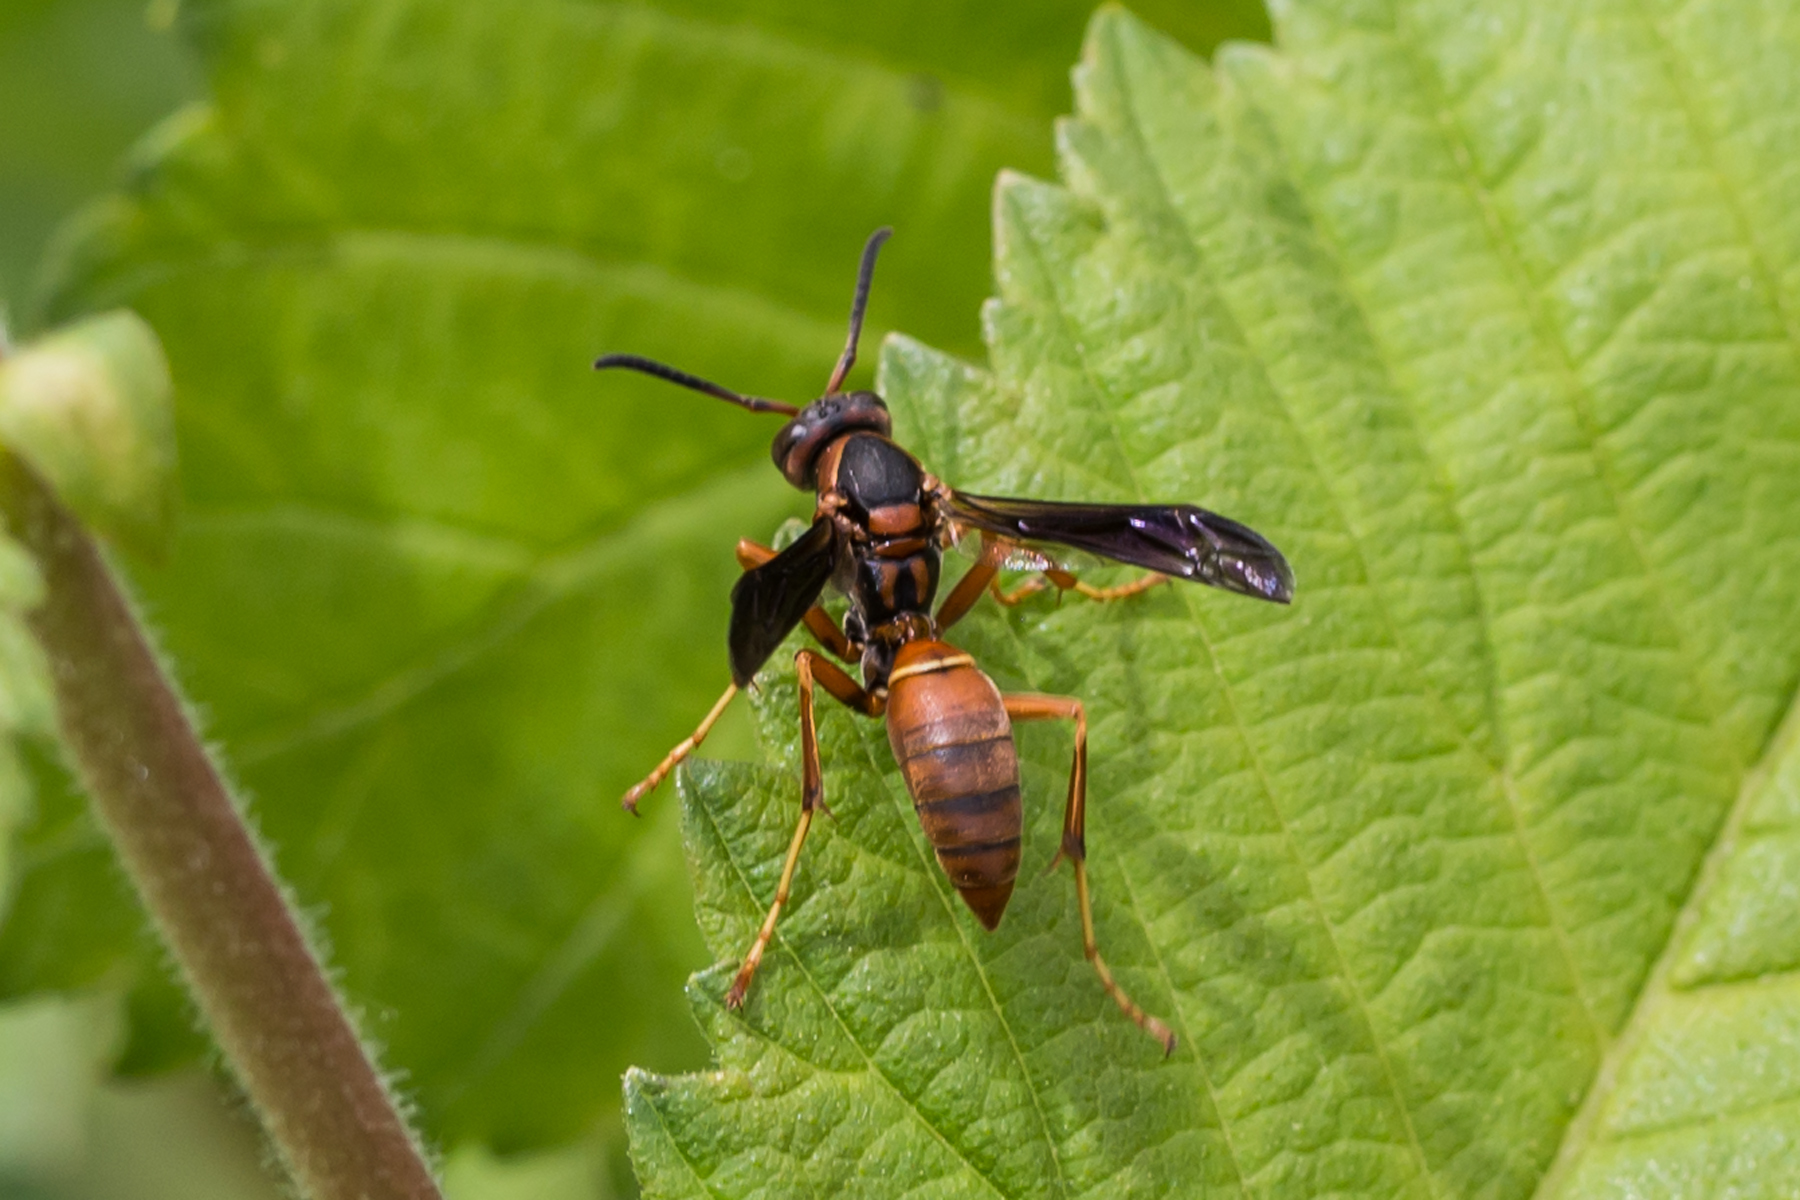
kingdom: Animalia
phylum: Arthropoda
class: Insecta
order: Hymenoptera
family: Eumenidae
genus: Polistes
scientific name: Polistes fuscatus
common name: Dark paper wasp
